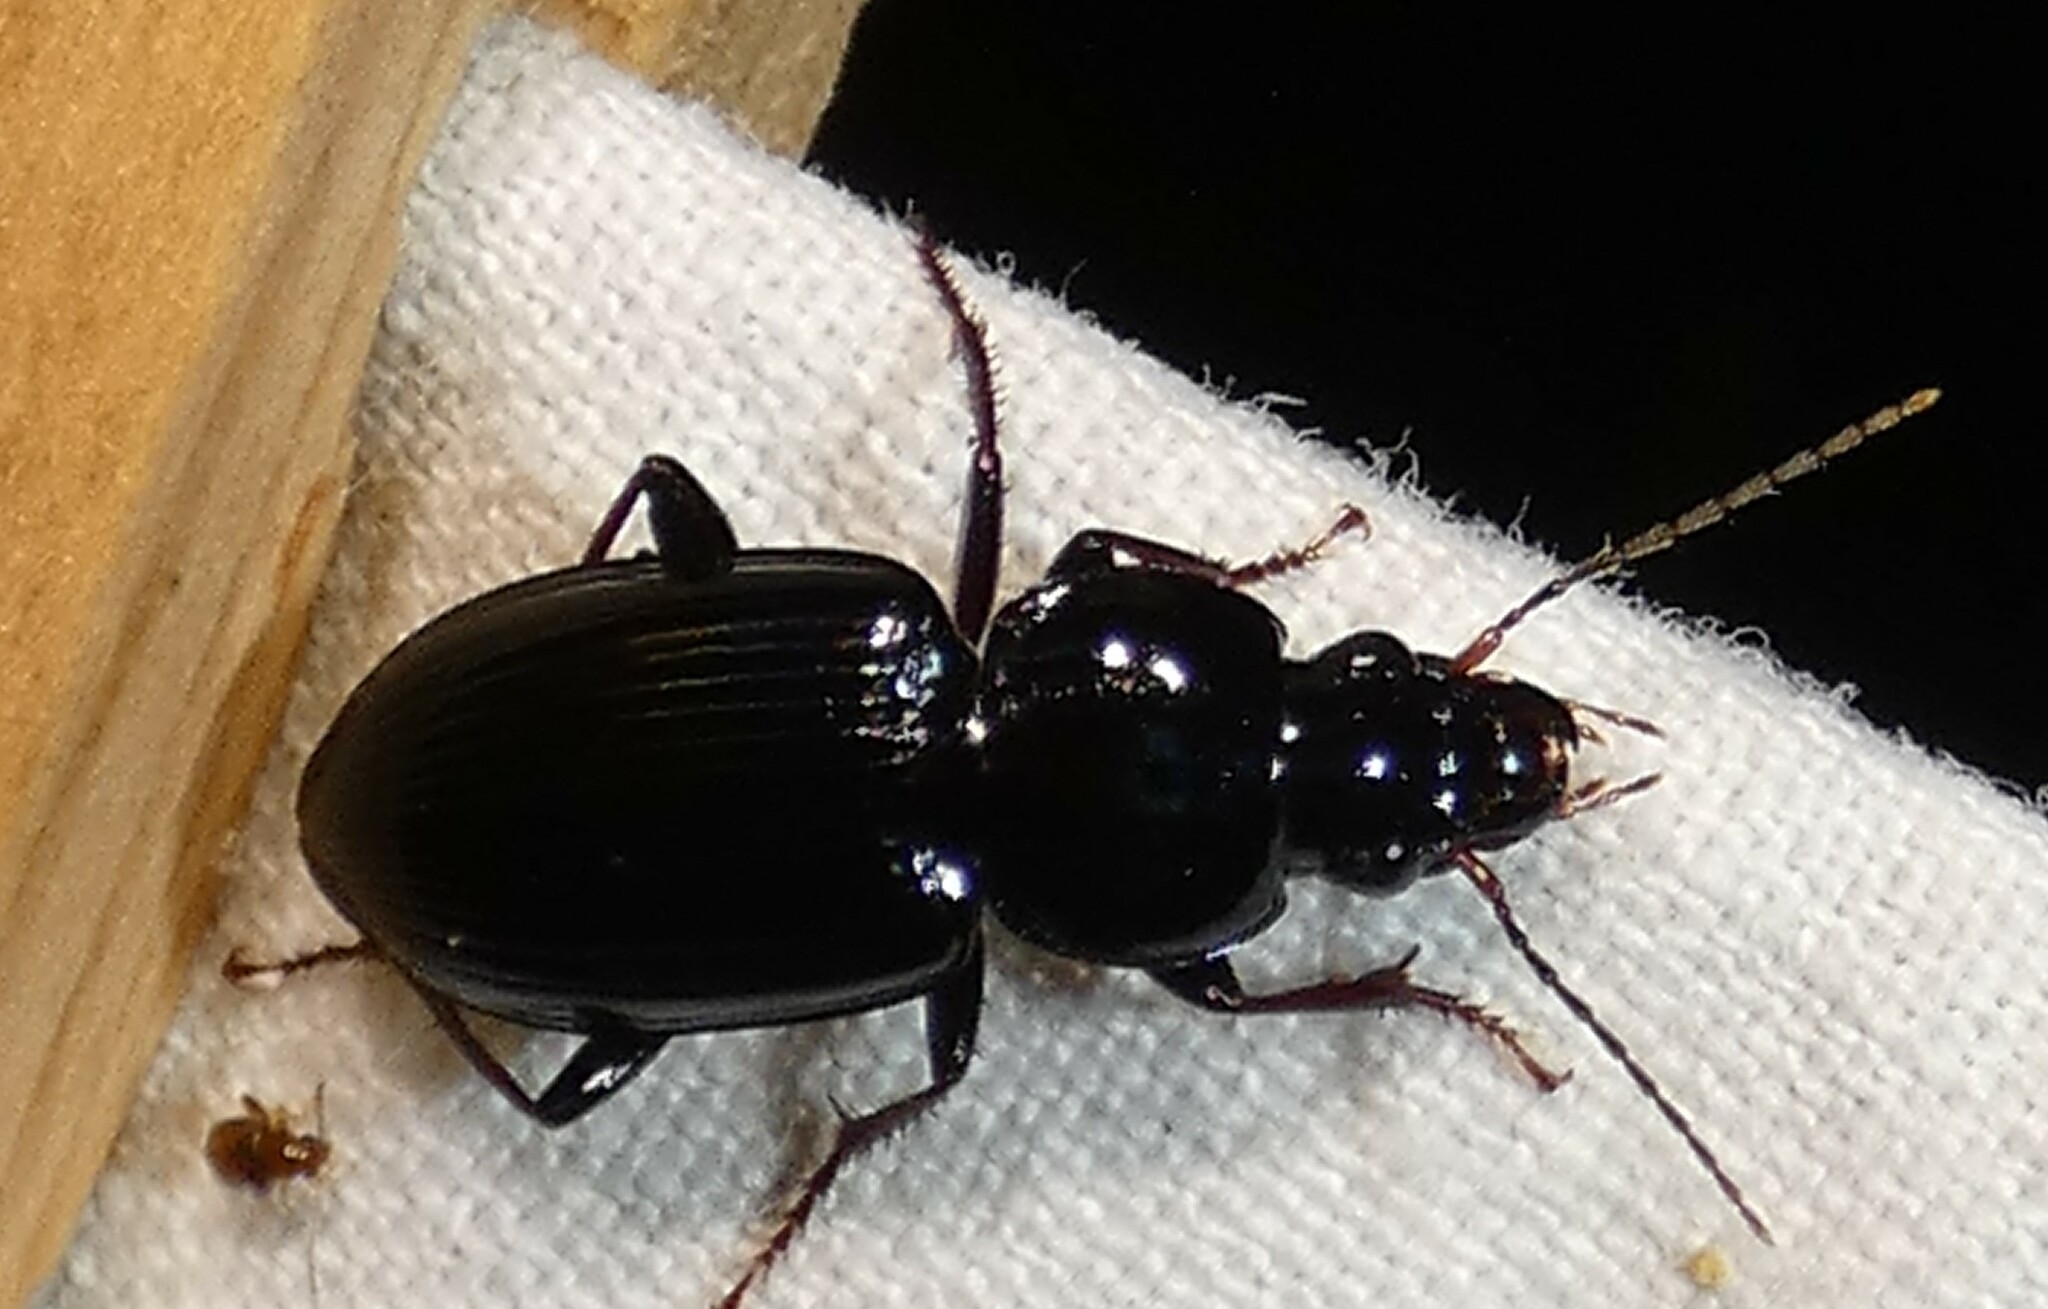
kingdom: Animalia
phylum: Arthropoda
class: Insecta
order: Coleoptera
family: Carabidae
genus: Oxycrepis
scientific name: Oxycrepis saphyrina
